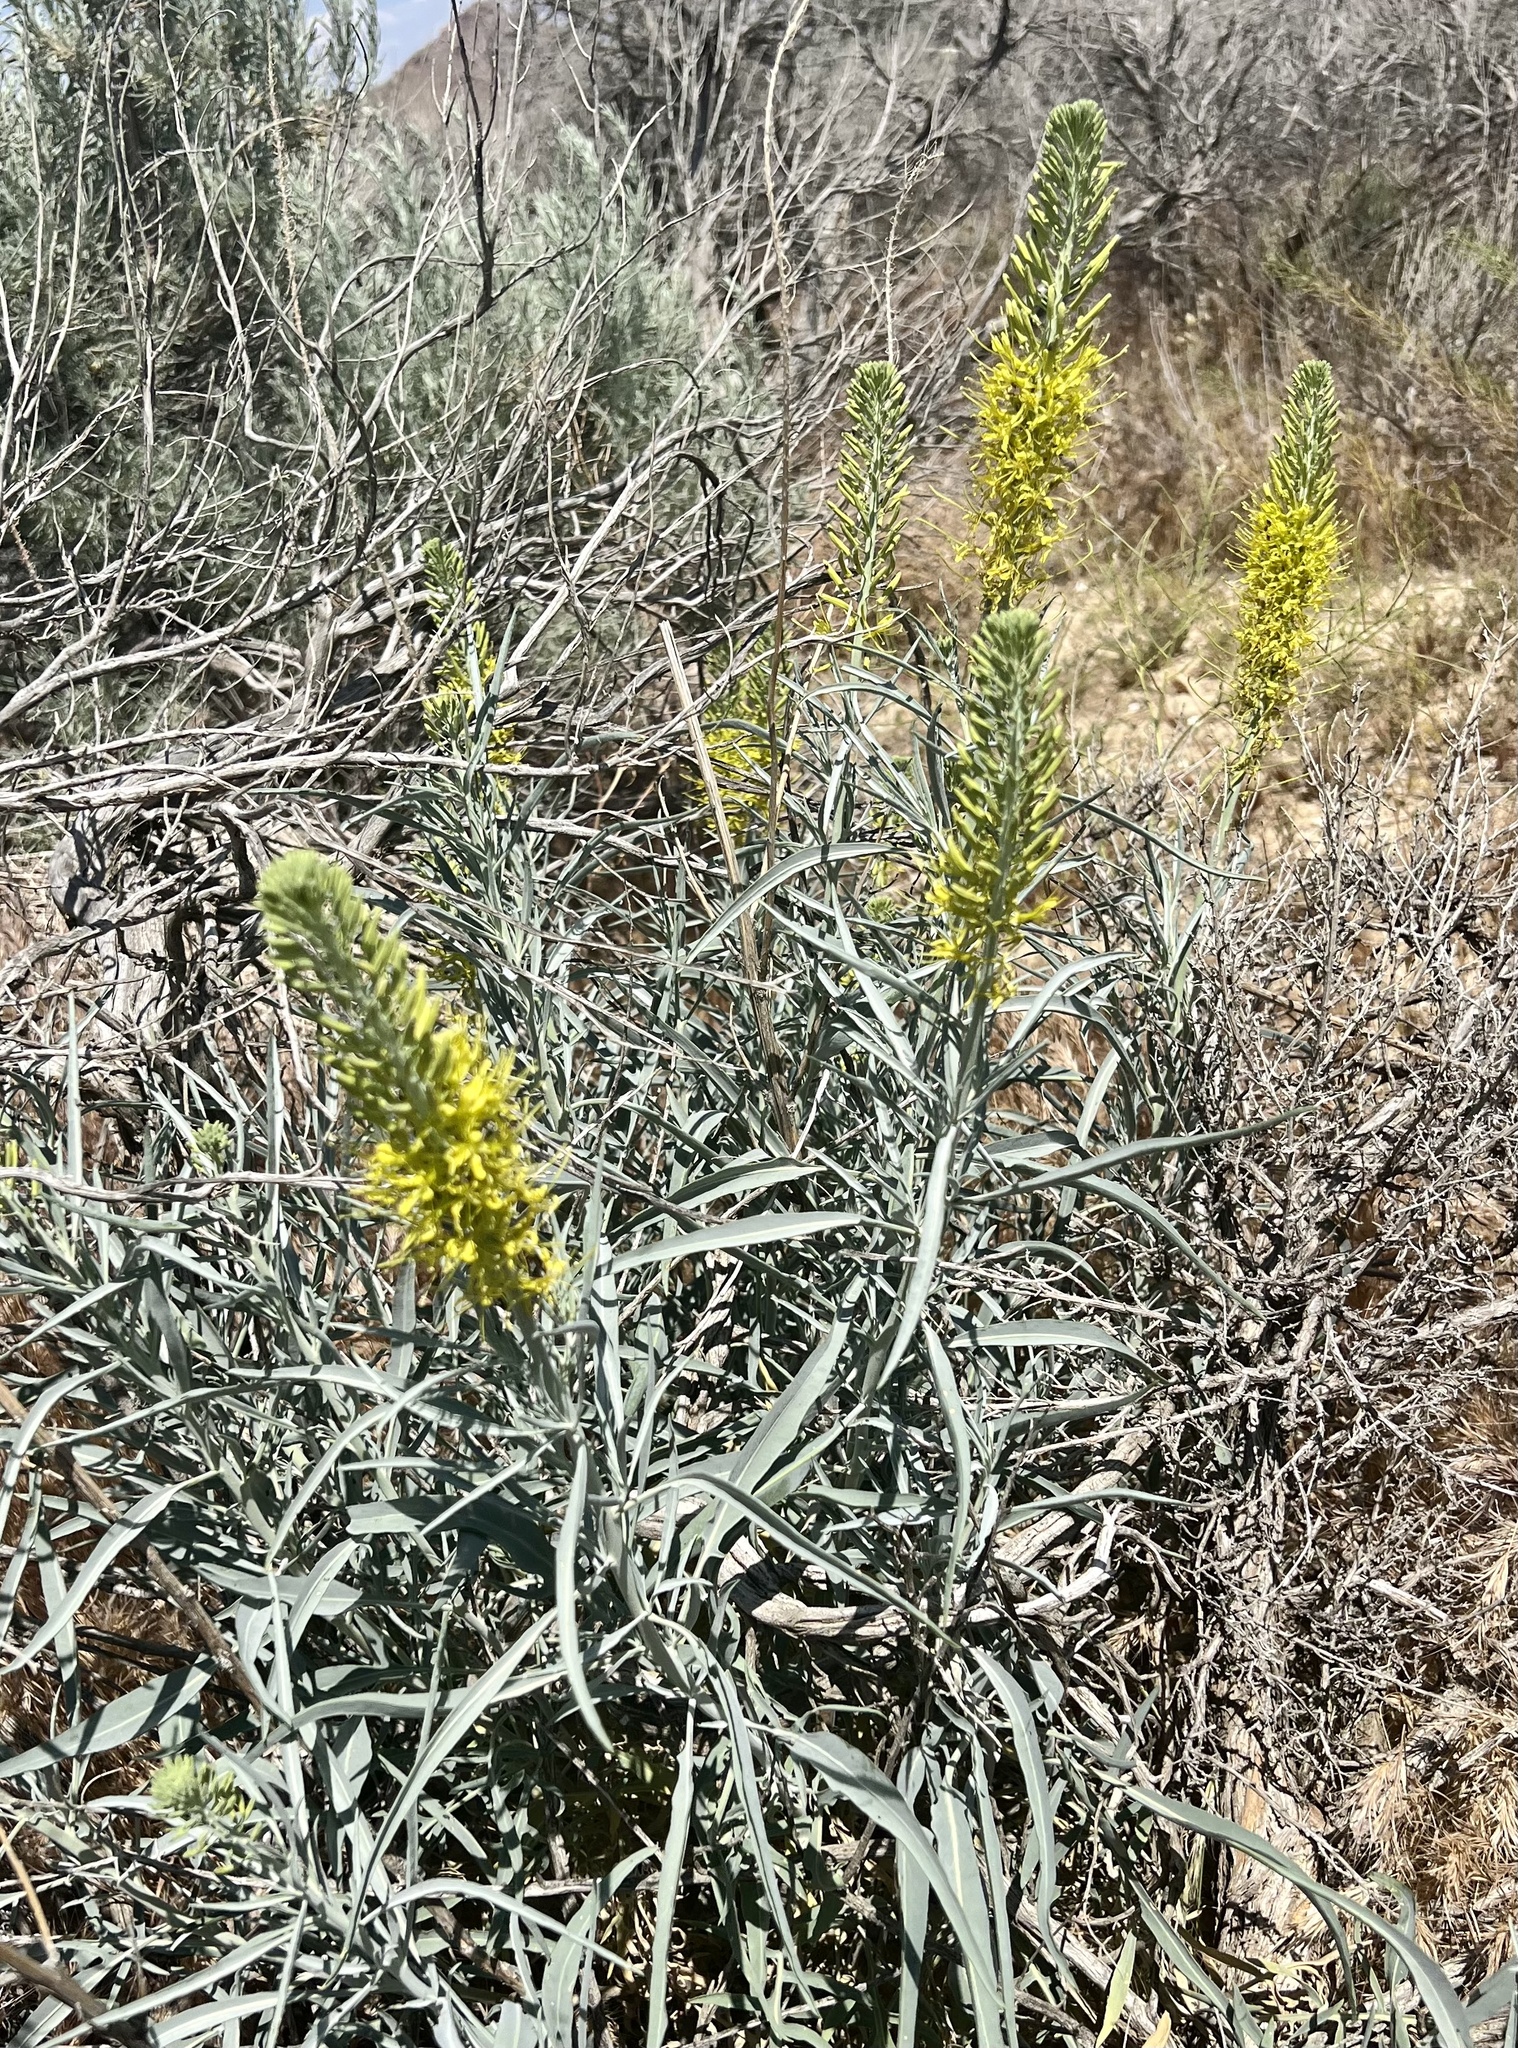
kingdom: Plantae
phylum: Tracheophyta
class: Magnoliopsida
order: Brassicales
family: Brassicaceae
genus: Stanleya
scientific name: Stanleya pinnata
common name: Prince's-plume
